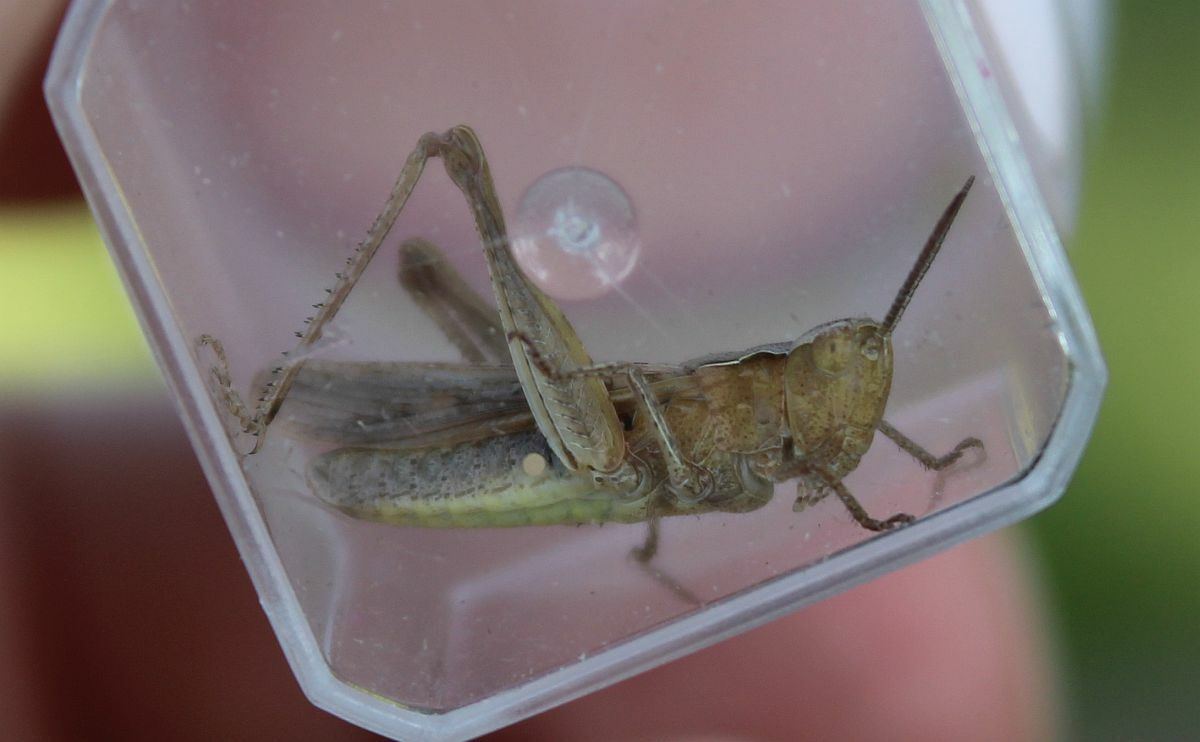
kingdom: Animalia
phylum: Arthropoda
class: Insecta
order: Orthoptera
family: Acrididae
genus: Chorthippus
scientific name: Chorthippus brunneus
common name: Field grasshopper
